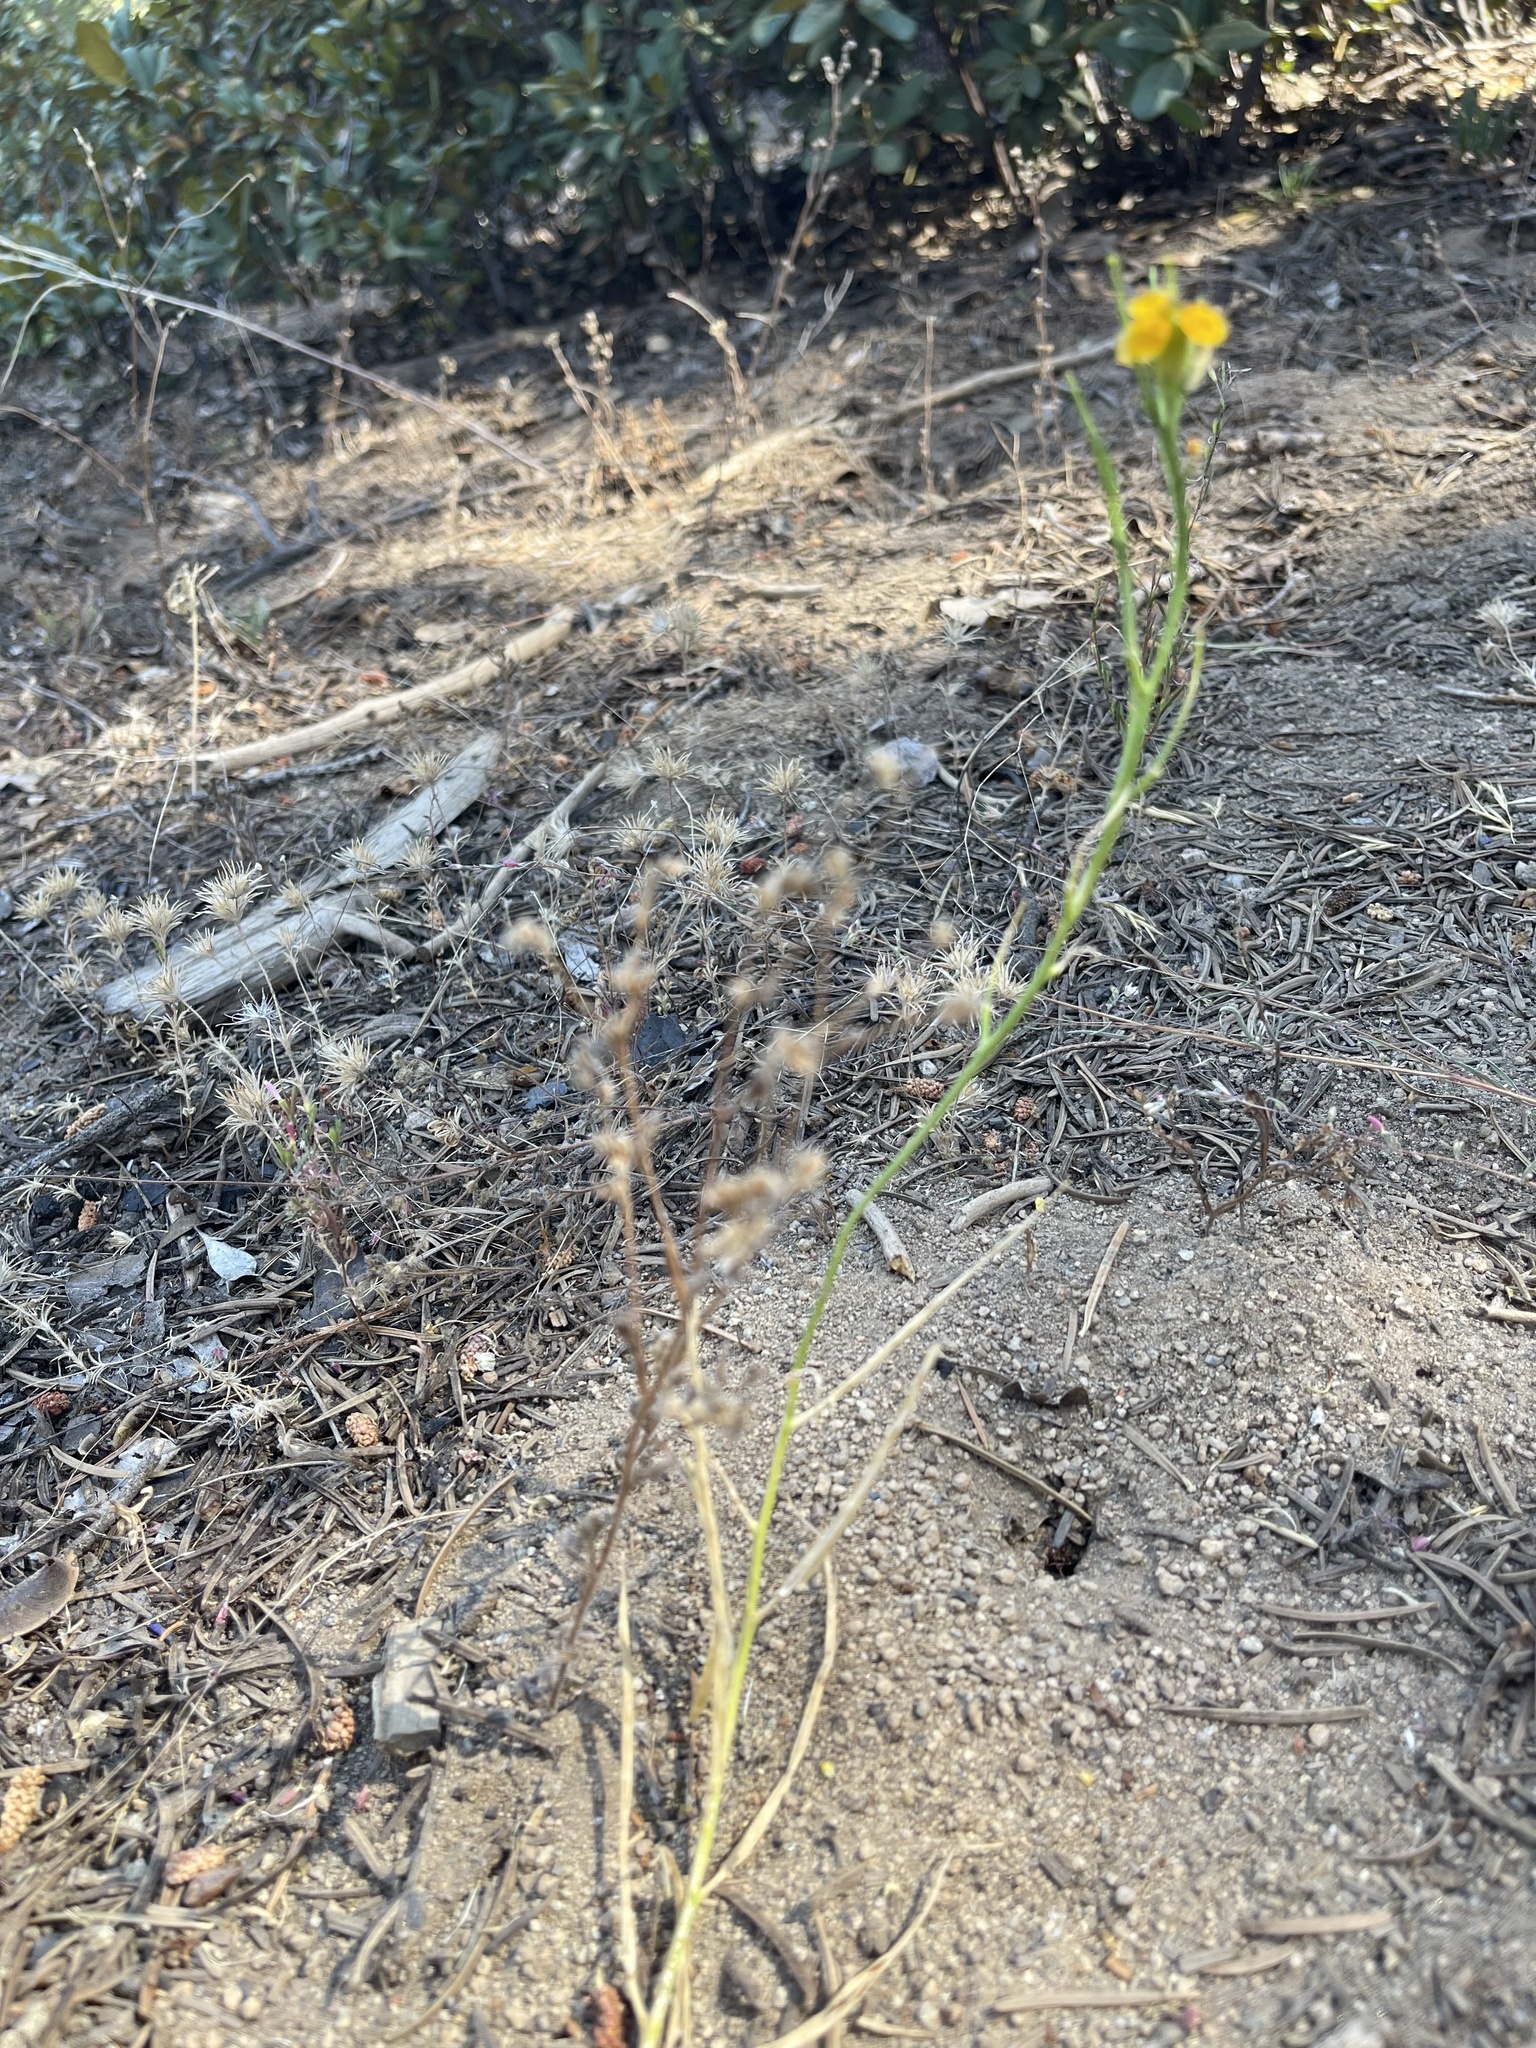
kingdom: Plantae
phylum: Tracheophyta
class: Magnoliopsida
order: Brassicales
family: Brassicaceae
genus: Erysimum
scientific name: Erysimum capitatum
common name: Western wallflower
